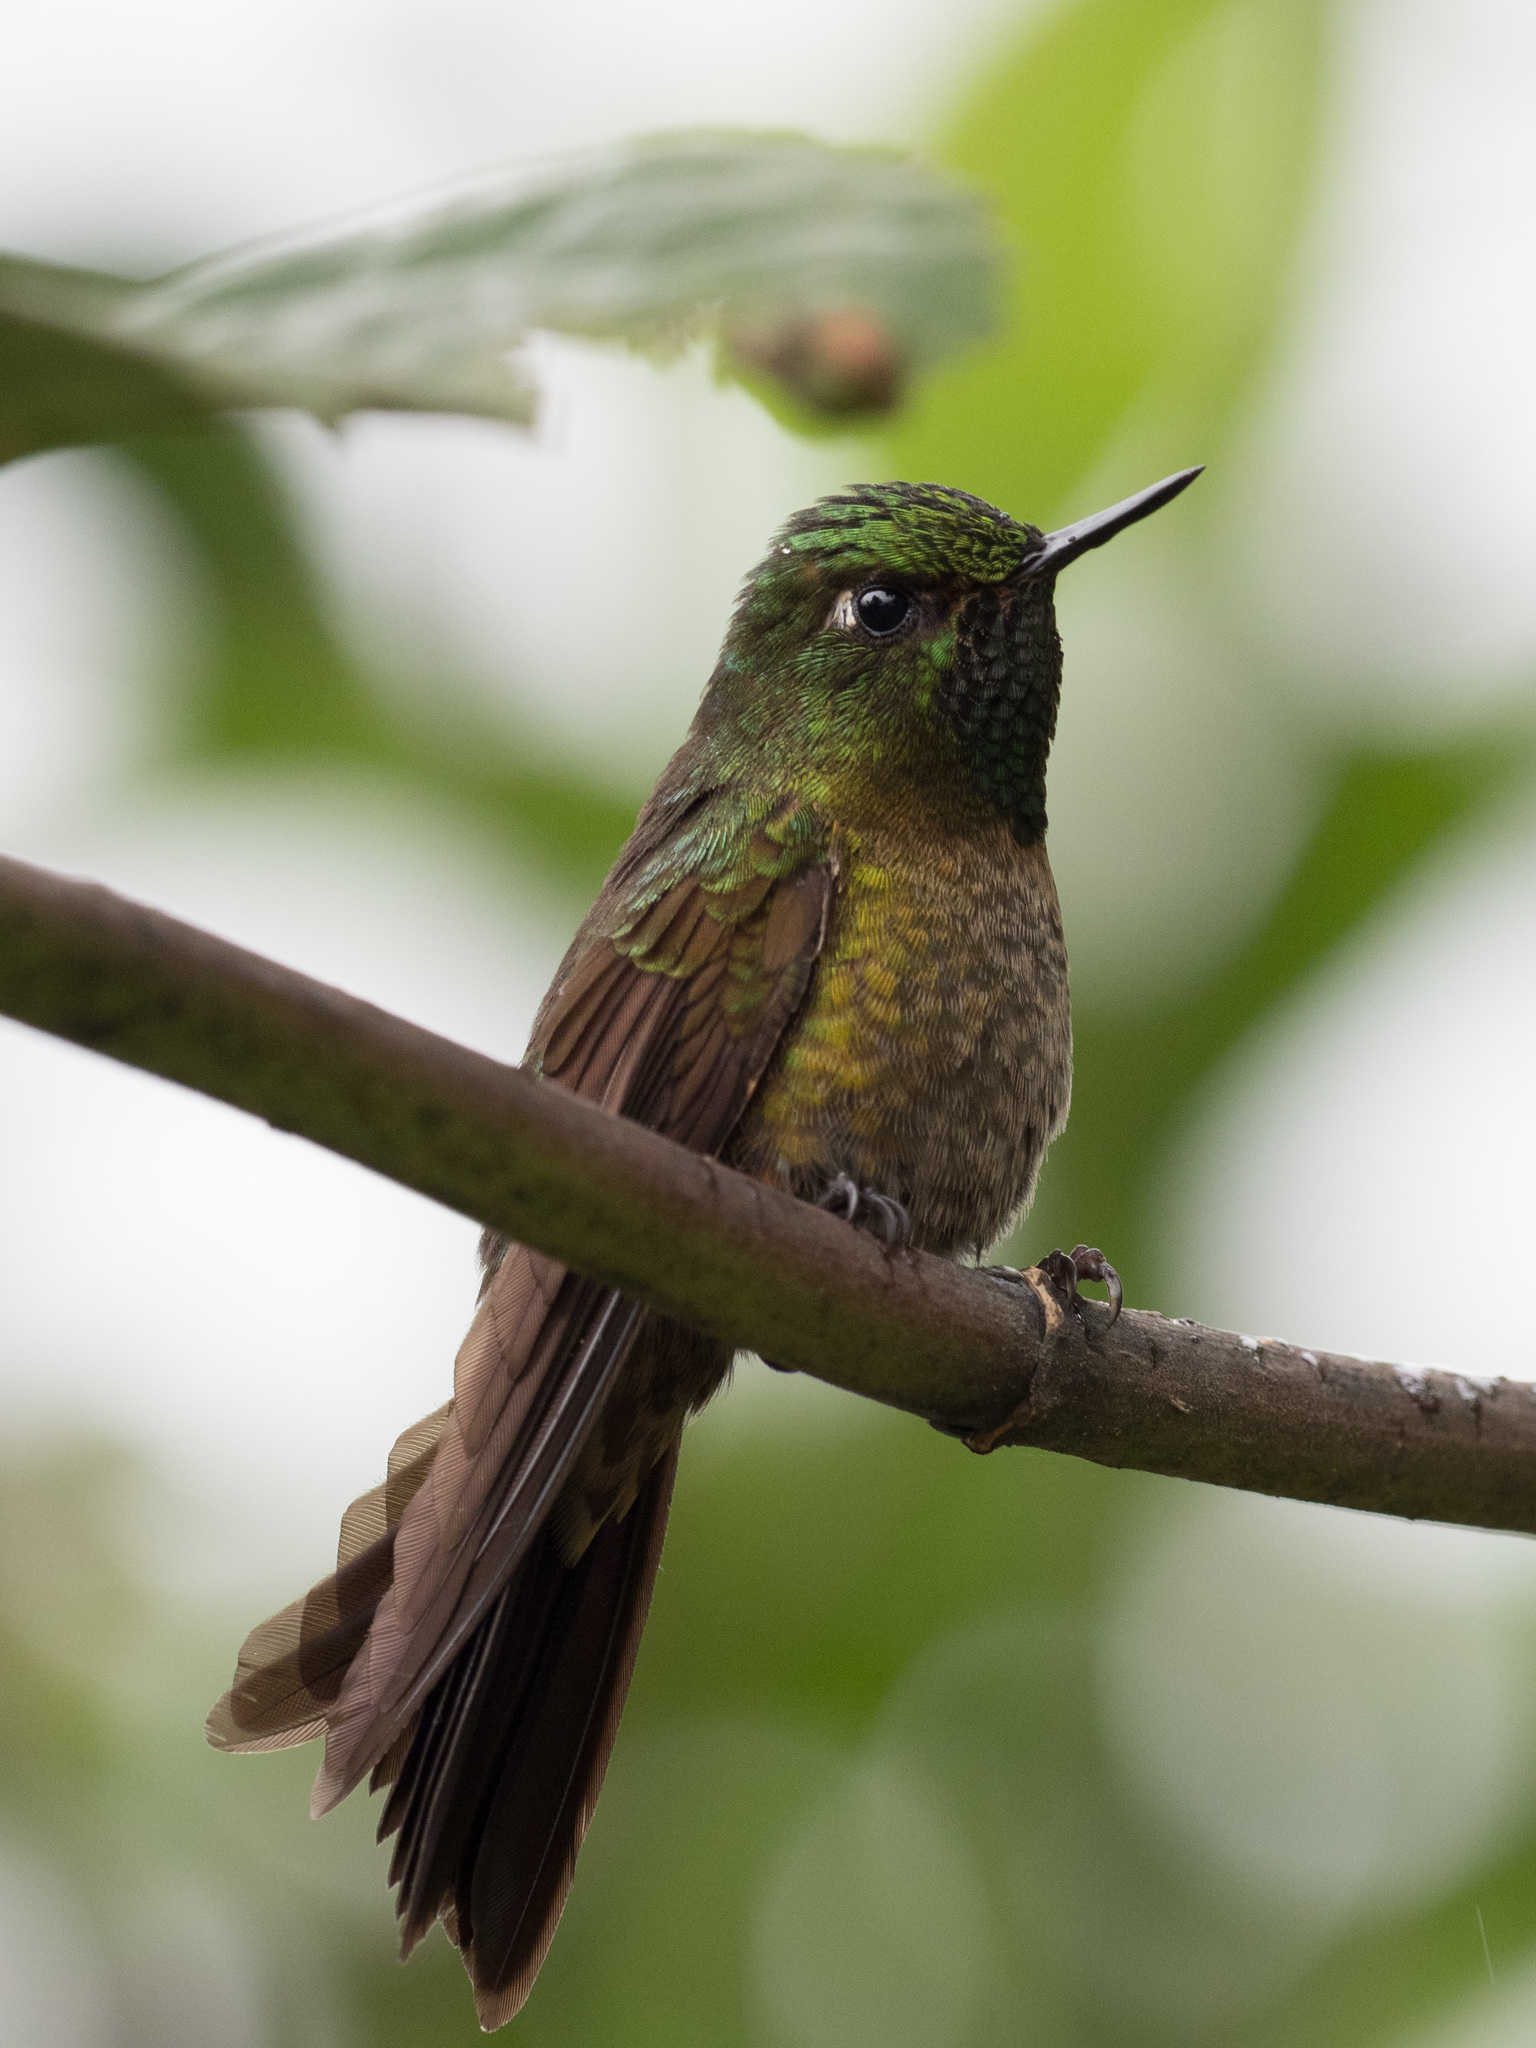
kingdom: Animalia
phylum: Chordata
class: Aves
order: Apodiformes
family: Trochilidae
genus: Metallura
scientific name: Metallura tyrianthina
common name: Tyrian metaltail
